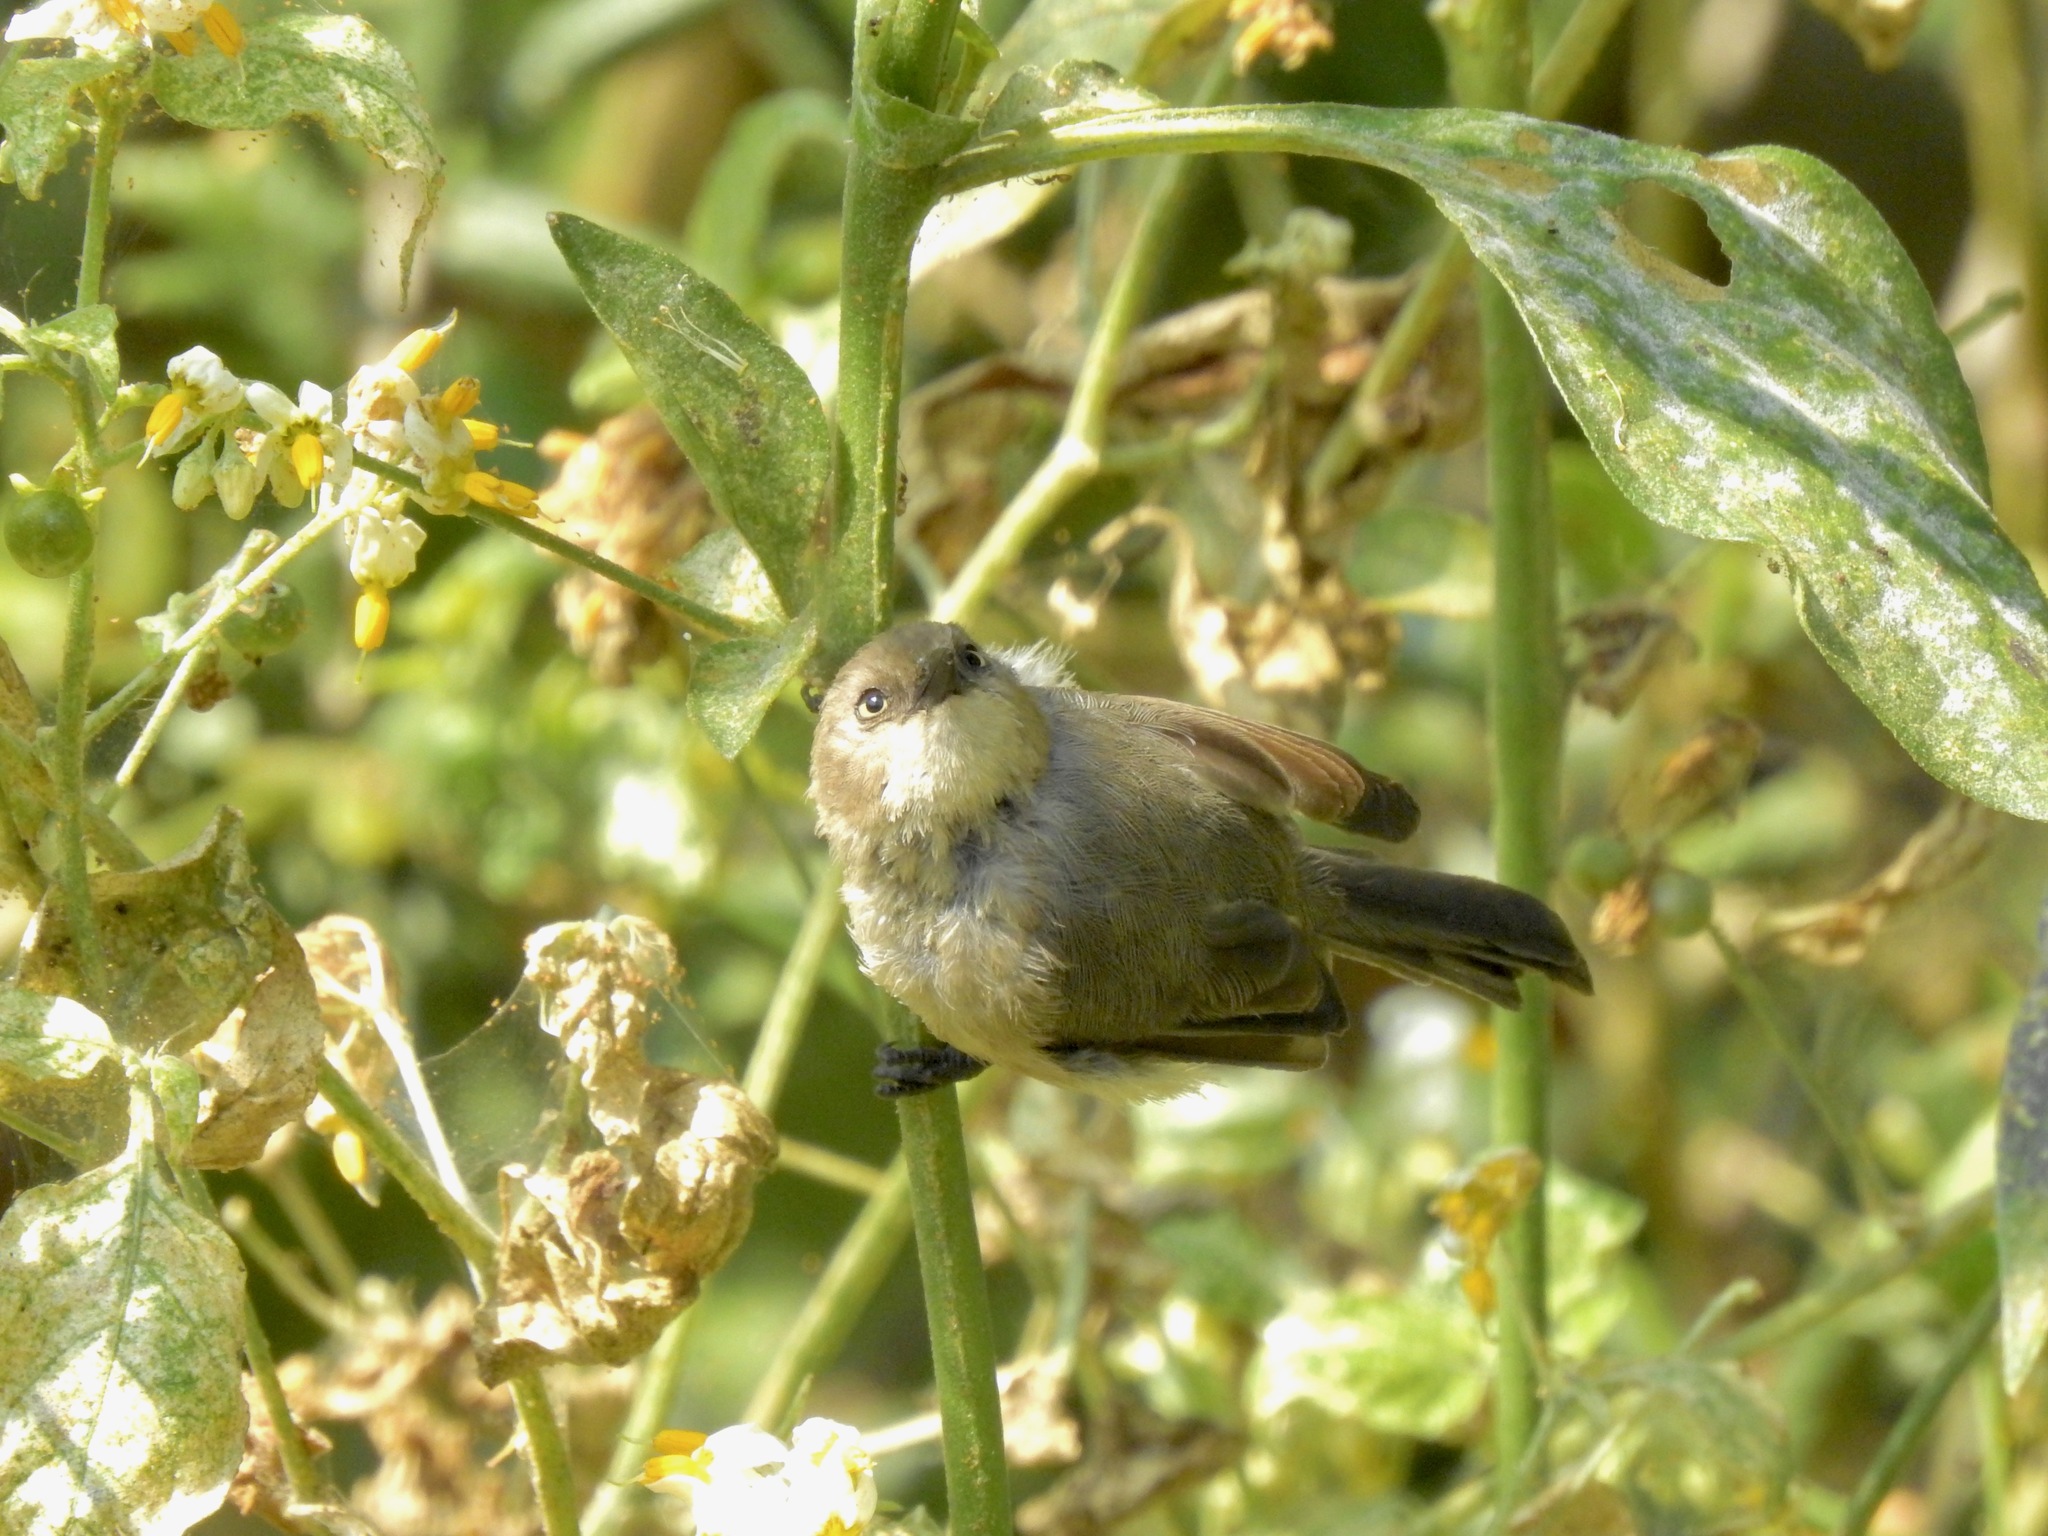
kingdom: Animalia
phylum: Chordata
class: Aves
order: Passeriformes
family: Aegithalidae
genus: Psaltriparus
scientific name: Psaltriparus minimus
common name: American bushtit
